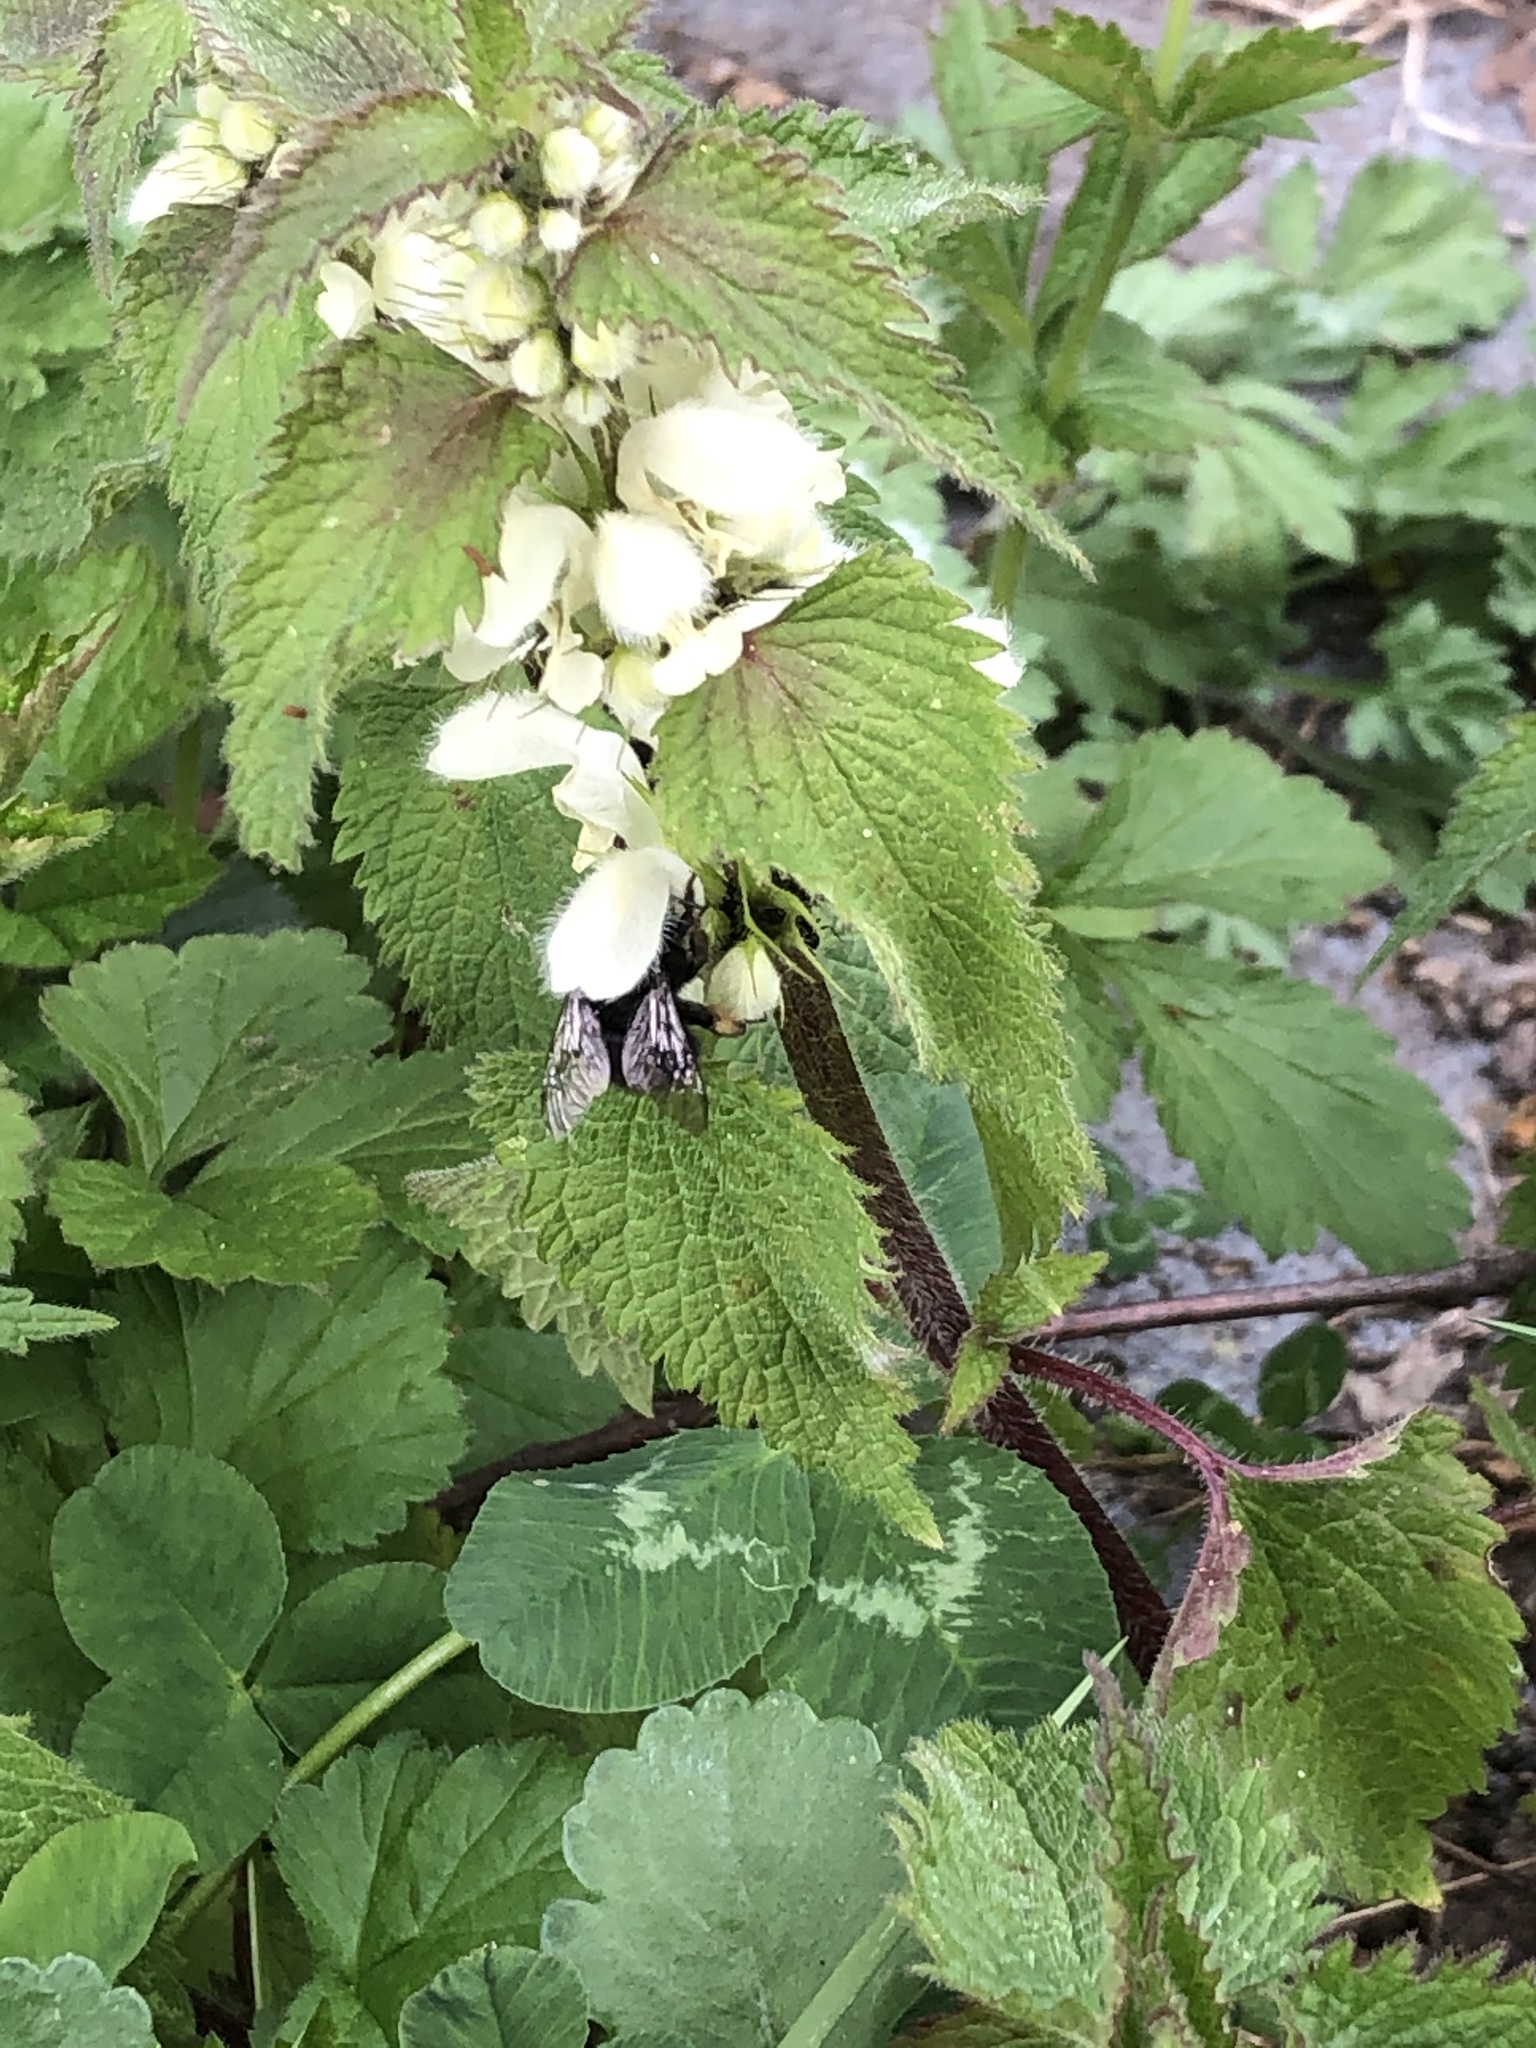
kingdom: Animalia
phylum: Arthropoda
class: Insecta
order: Hymenoptera
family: Apidae
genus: Anthophora
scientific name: Anthophora plumipes
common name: Hairy-footed flower bee
